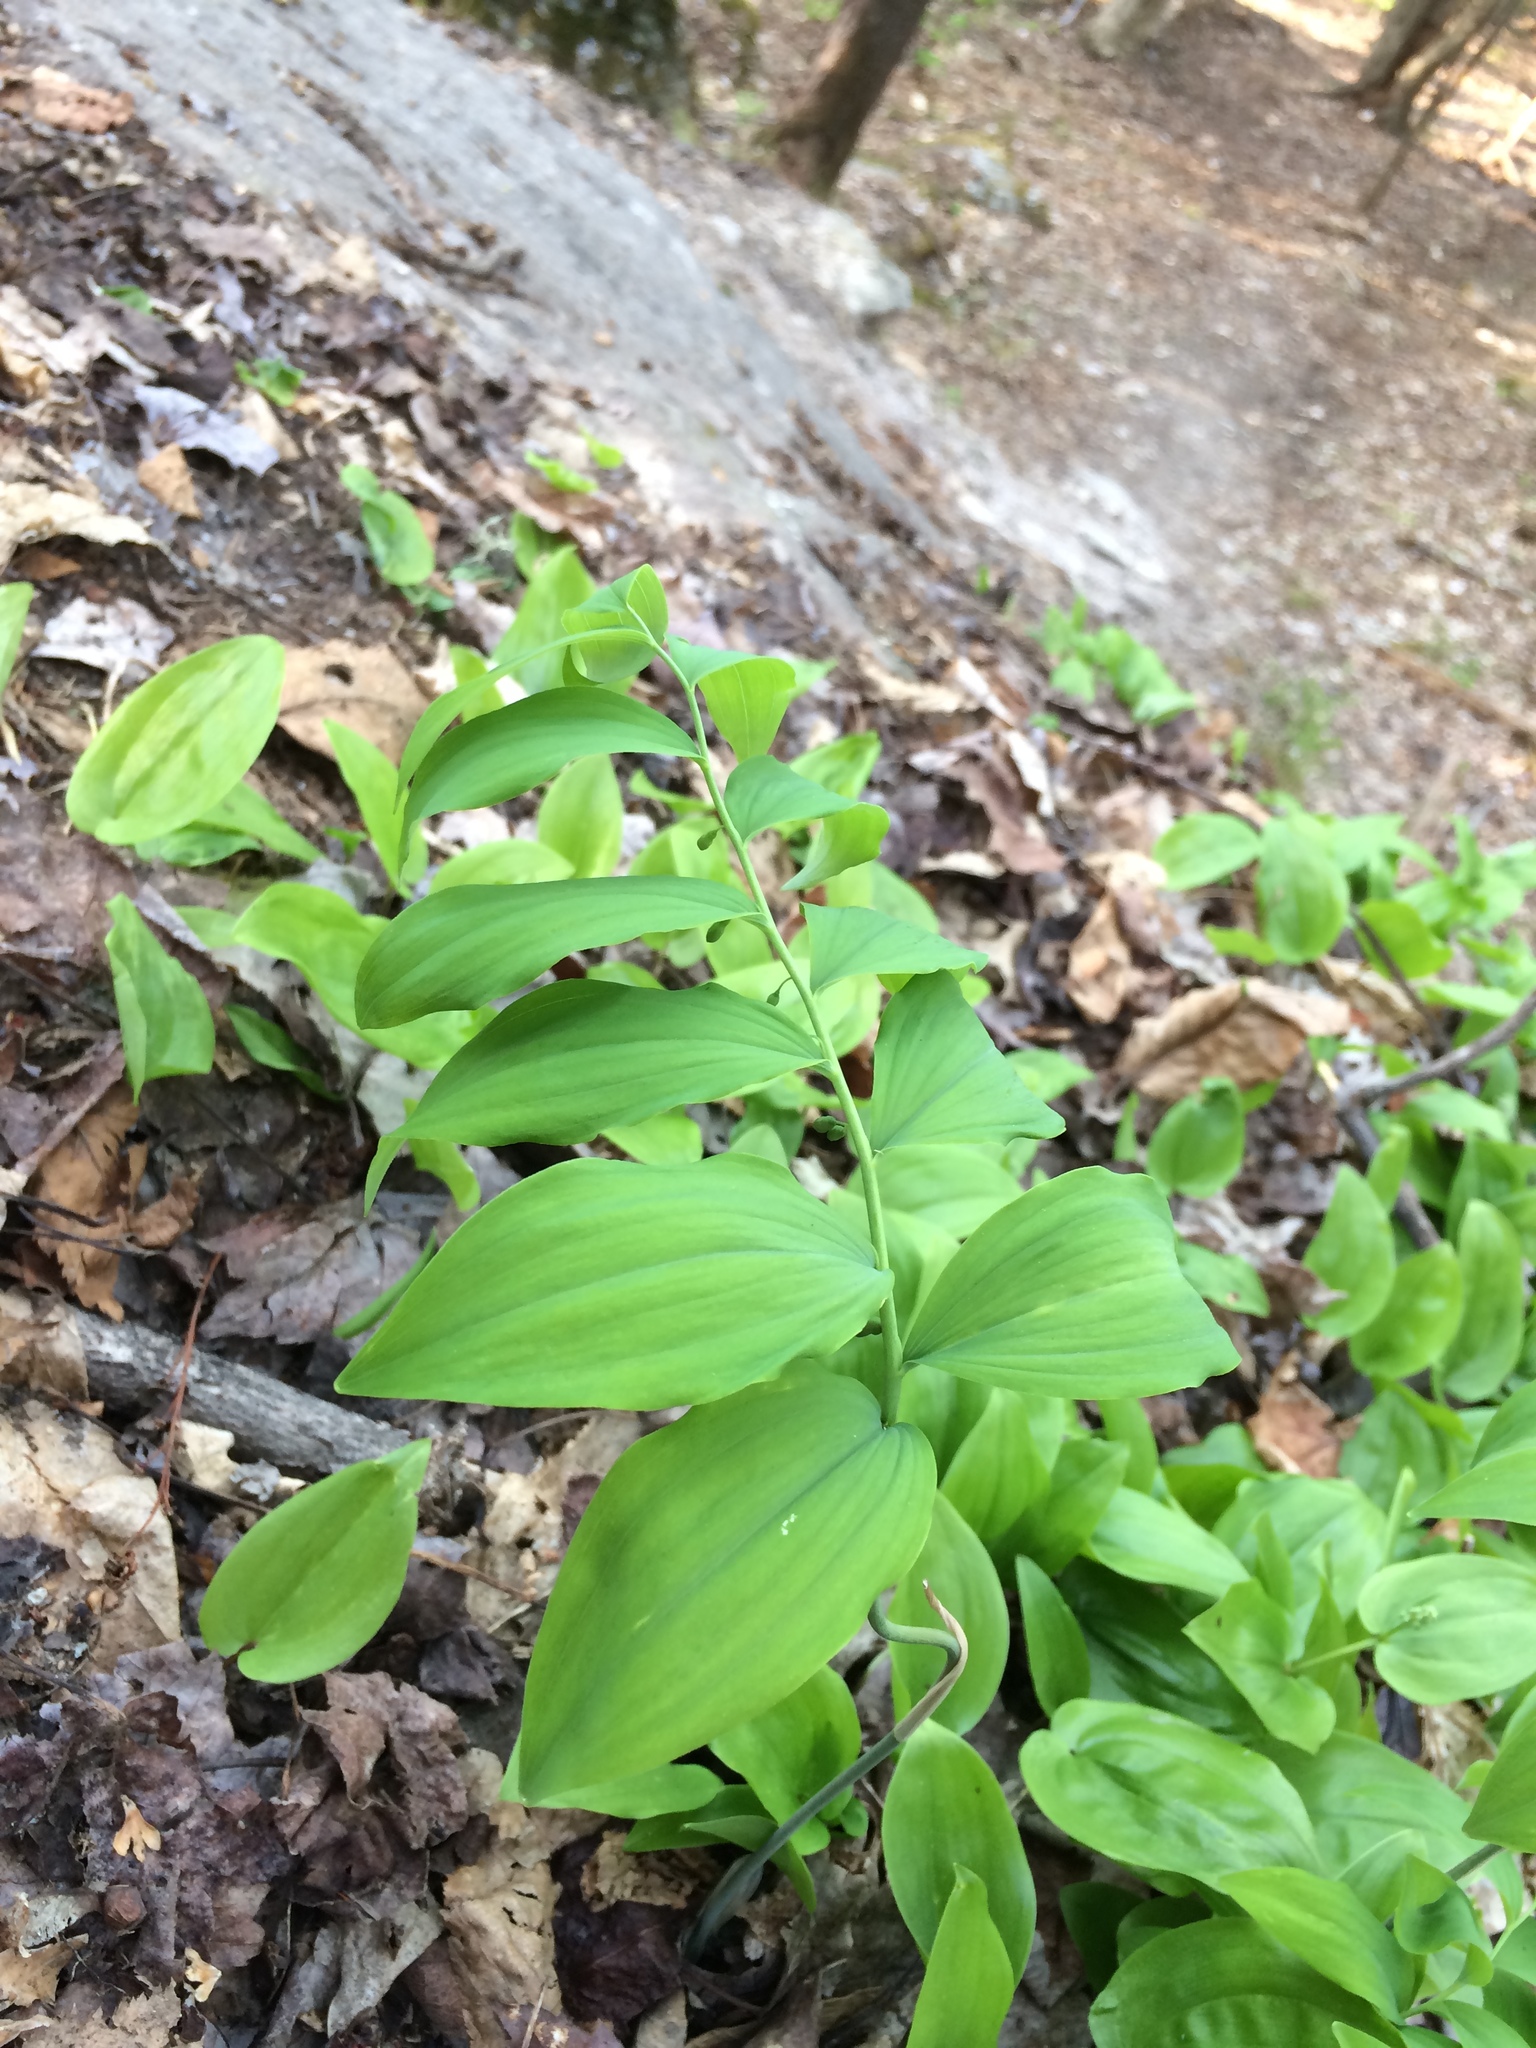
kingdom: Plantae
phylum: Tracheophyta
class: Liliopsida
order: Asparagales
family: Asparagaceae
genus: Polygonatum
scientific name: Polygonatum pubescens
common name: Downy solomon's seal
